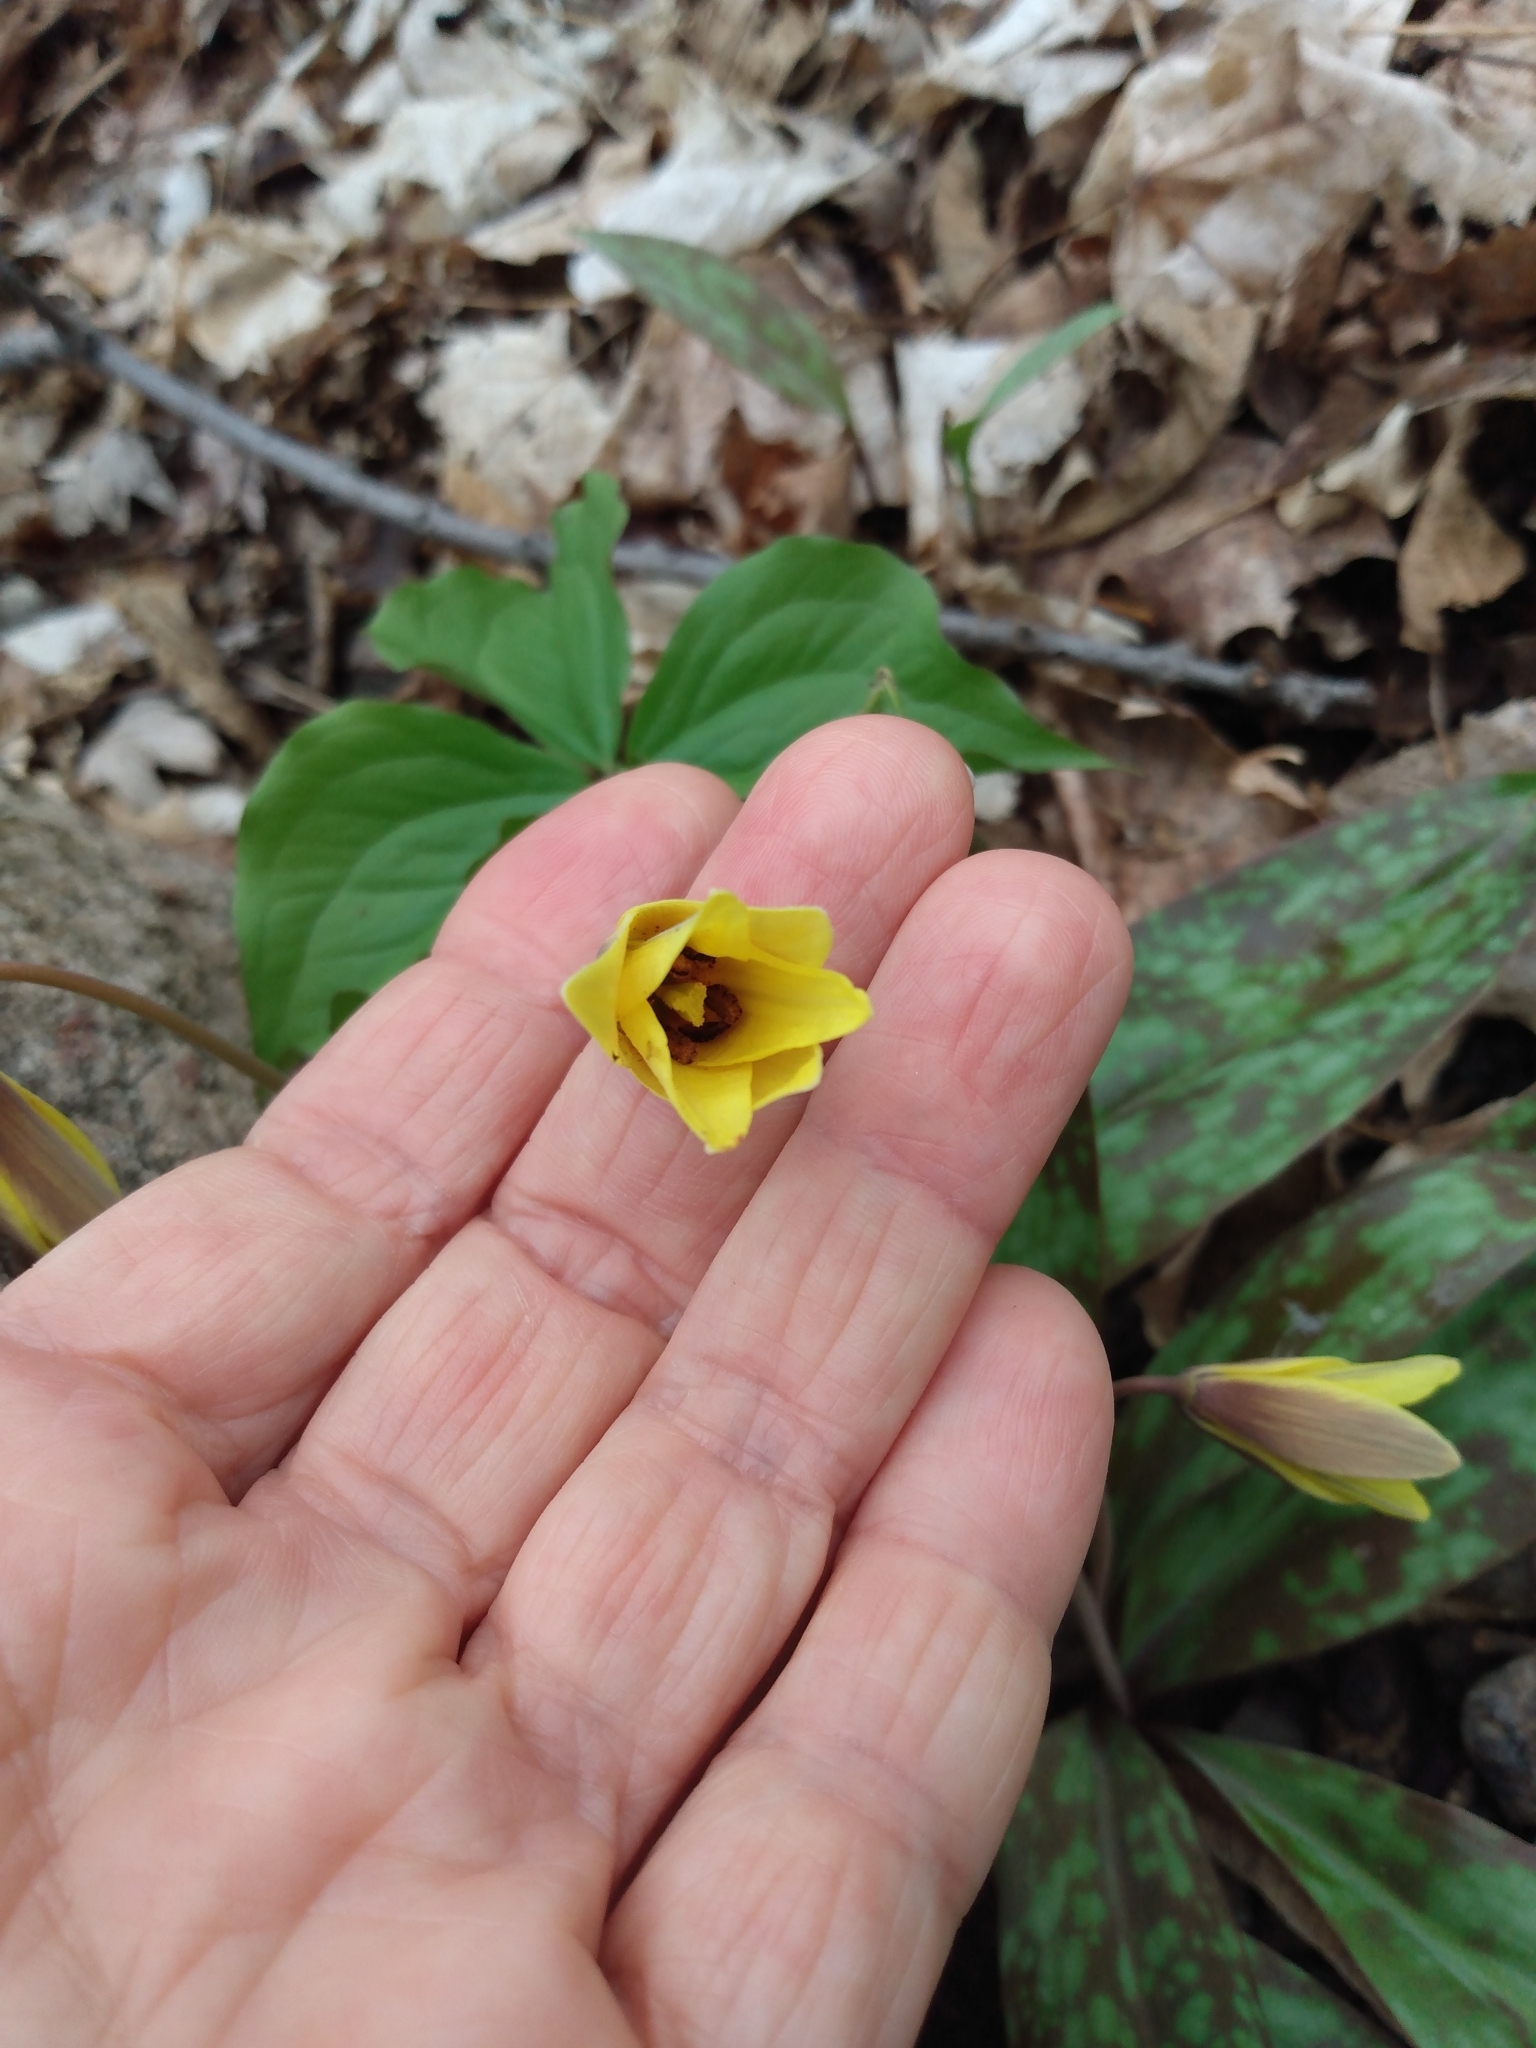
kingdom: Plantae
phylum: Tracheophyta
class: Liliopsida
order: Liliales
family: Liliaceae
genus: Erythronium
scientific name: Erythronium americanum
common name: Yellow adder's-tongue
